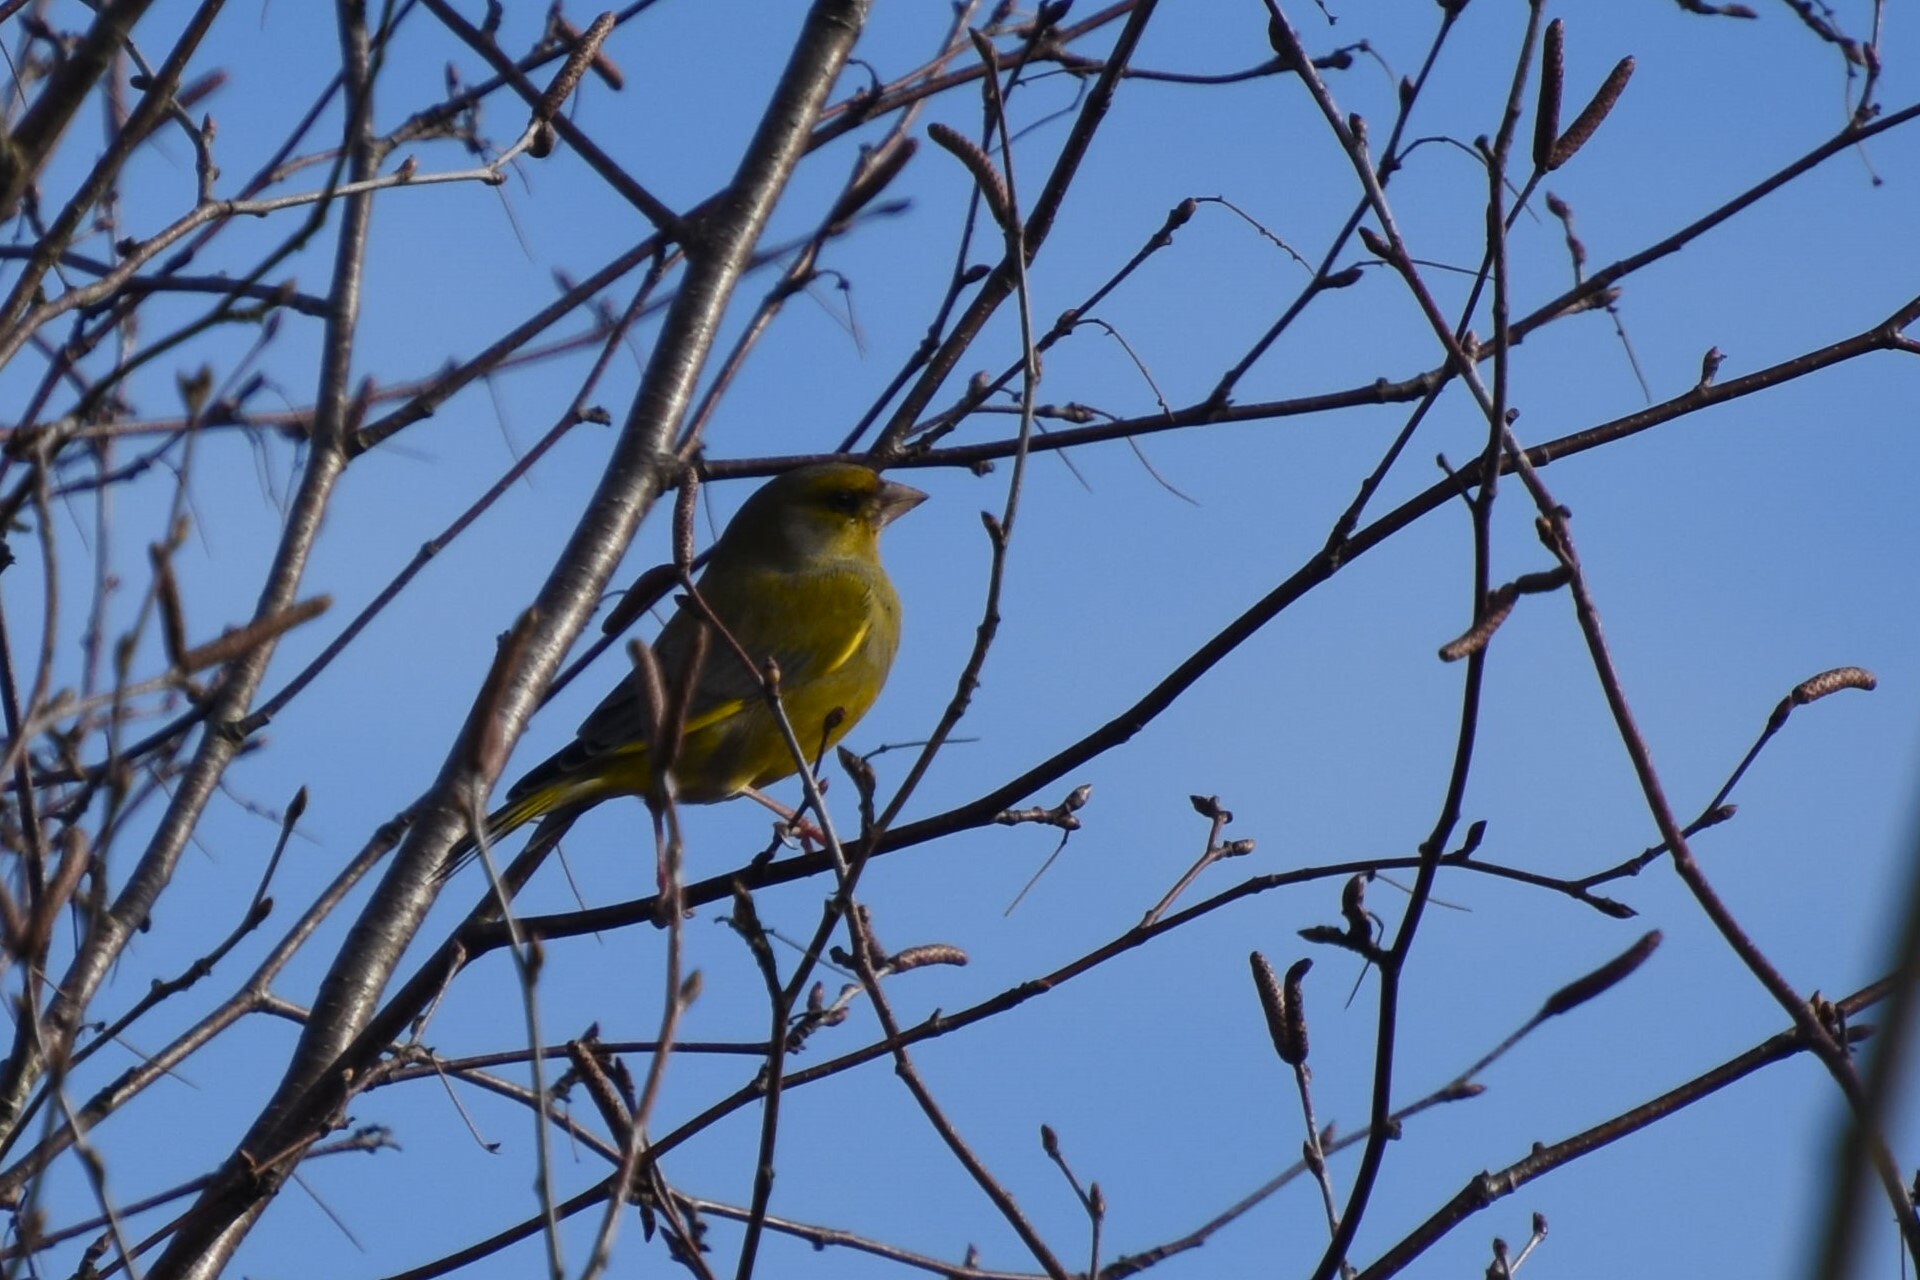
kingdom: Plantae
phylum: Tracheophyta
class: Liliopsida
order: Poales
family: Poaceae
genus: Chloris
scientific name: Chloris chloris
